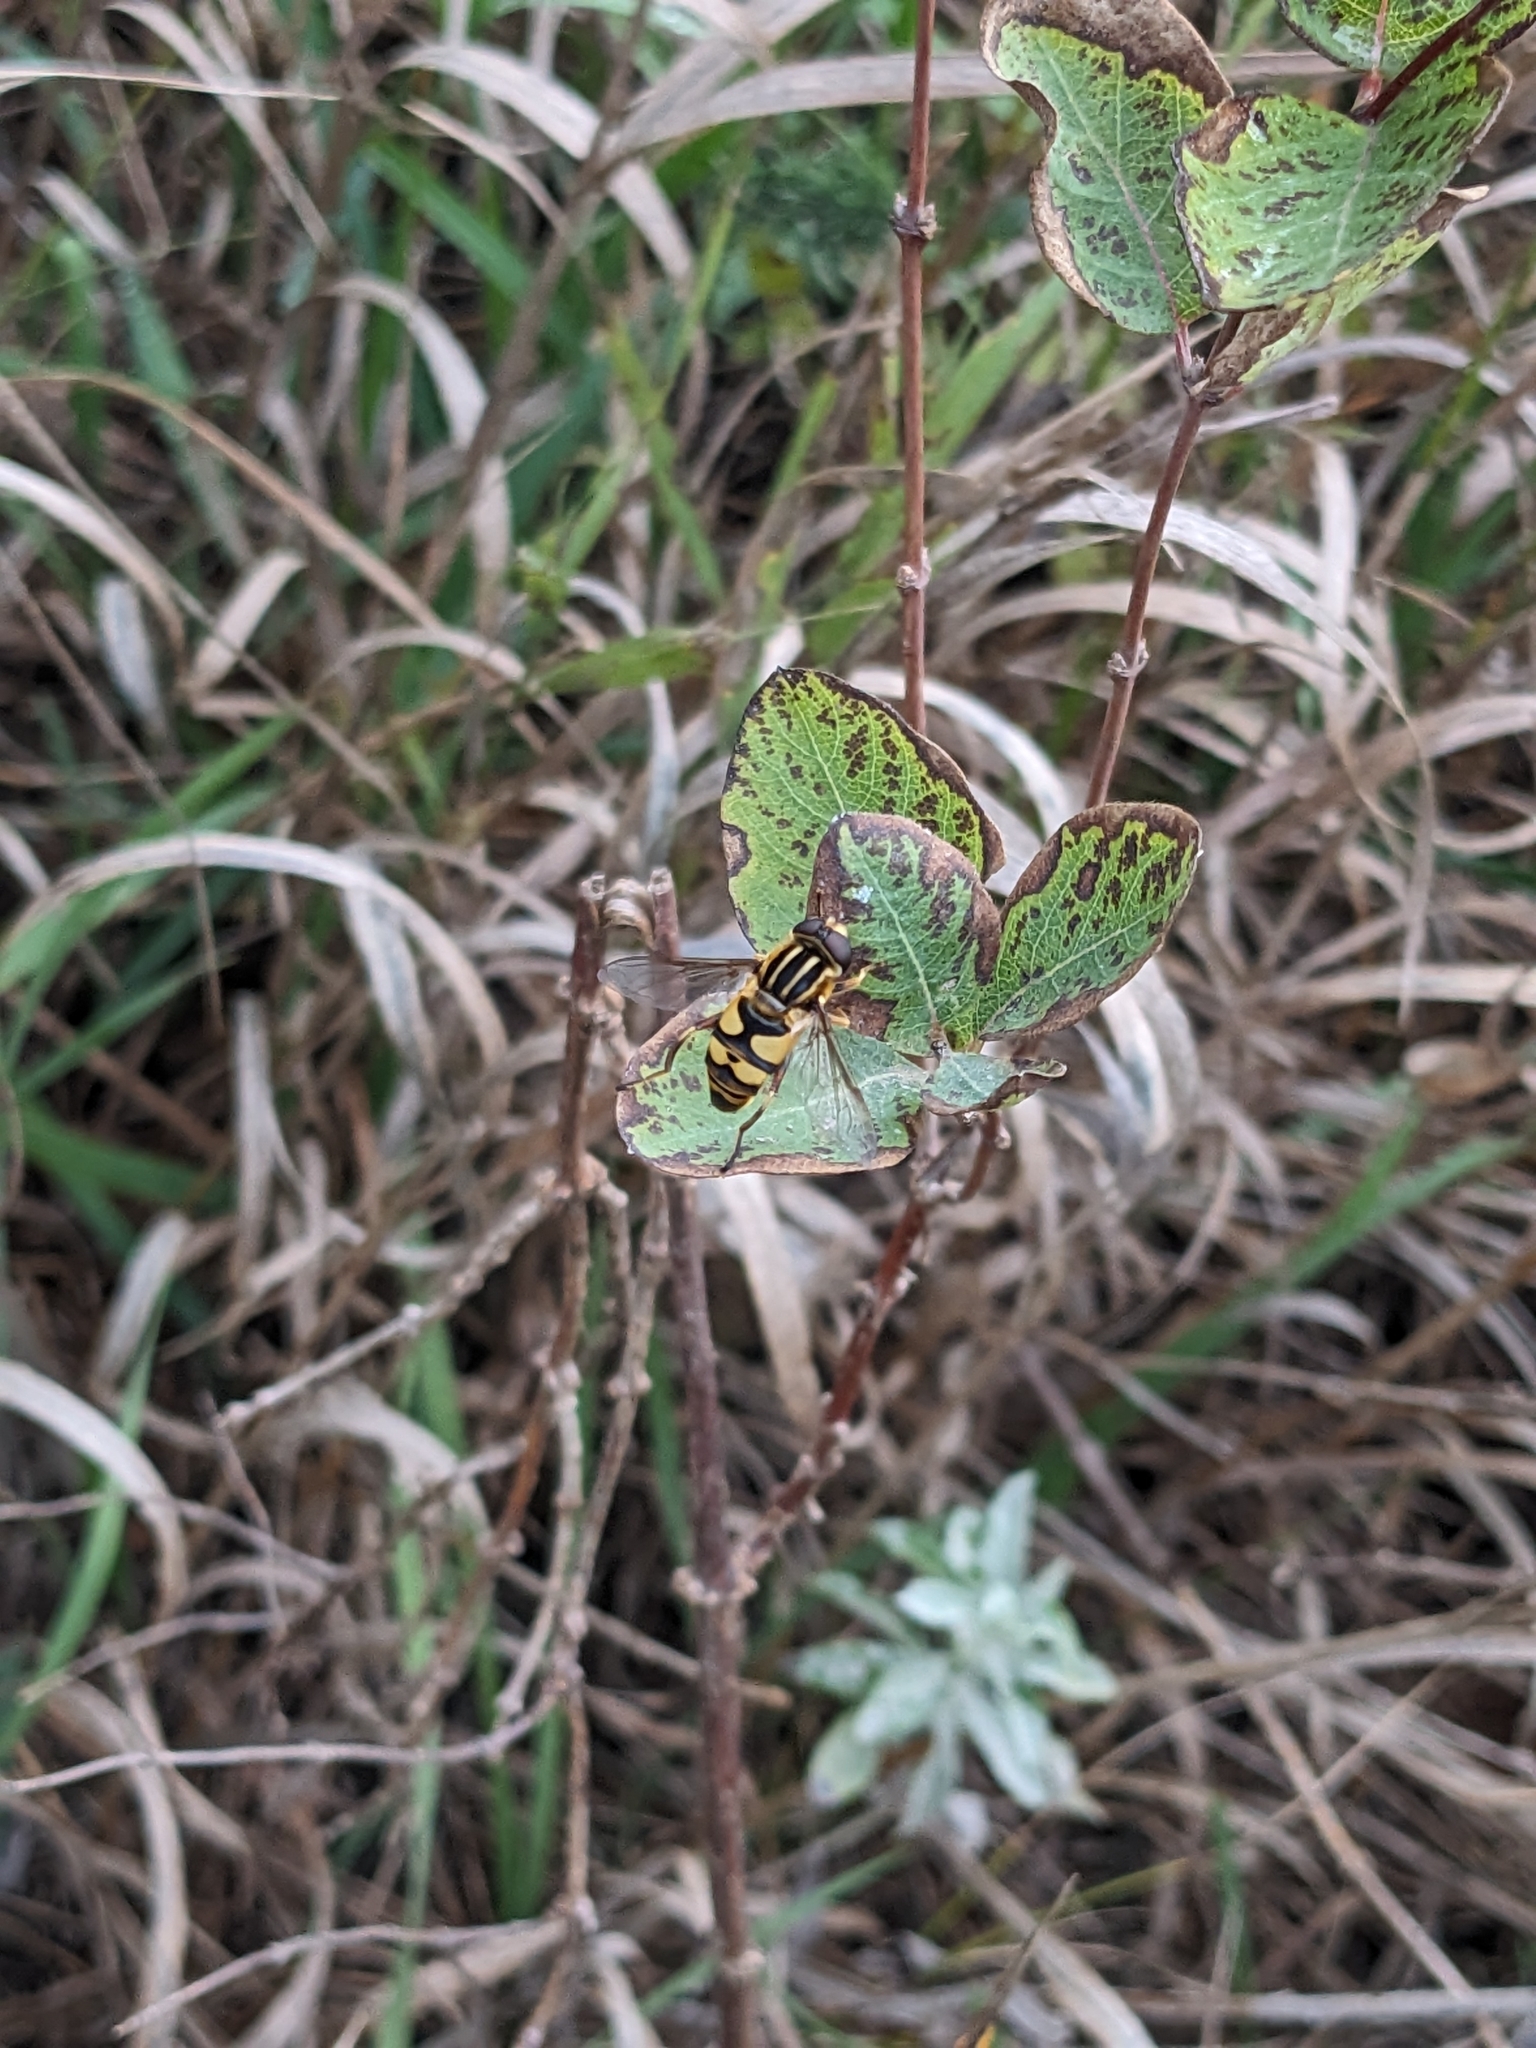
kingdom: Animalia
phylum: Arthropoda
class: Insecta
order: Diptera
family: Syrphidae
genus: Helophilus
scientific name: Helophilus fasciatus
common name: Narrow-headed marsh fly
